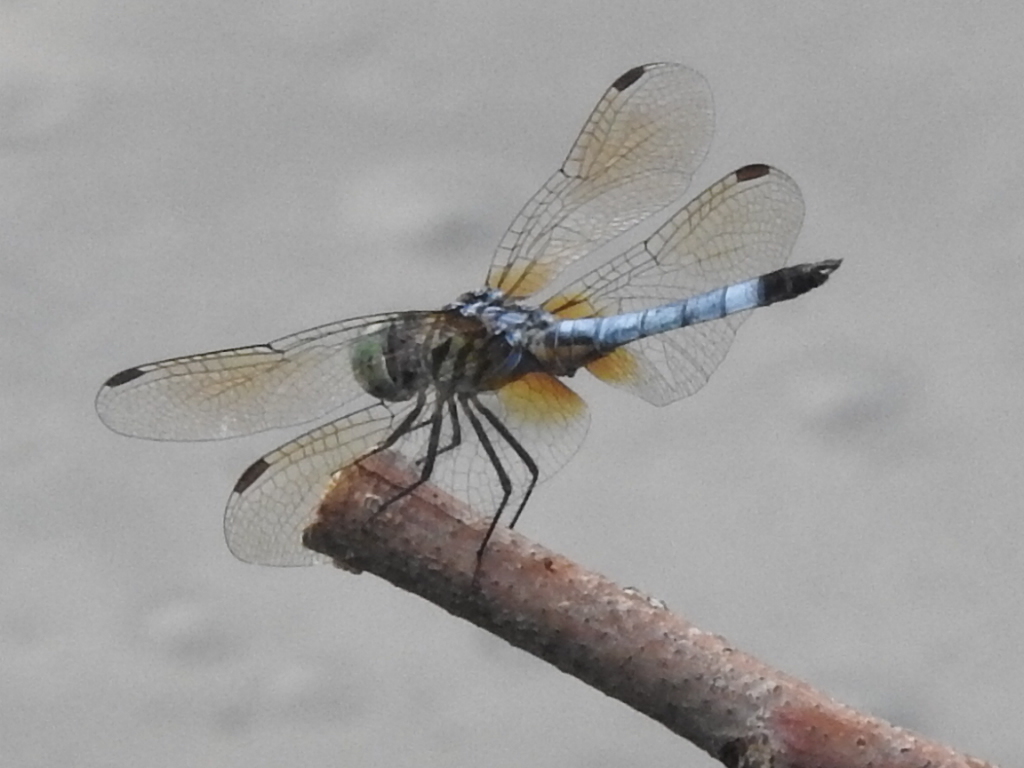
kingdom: Animalia
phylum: Arthropoda
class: Insecta
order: Odonata
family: Libellulidae
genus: Pachydiplax
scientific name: Pachydiplax longipennis
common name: Blue dasher
